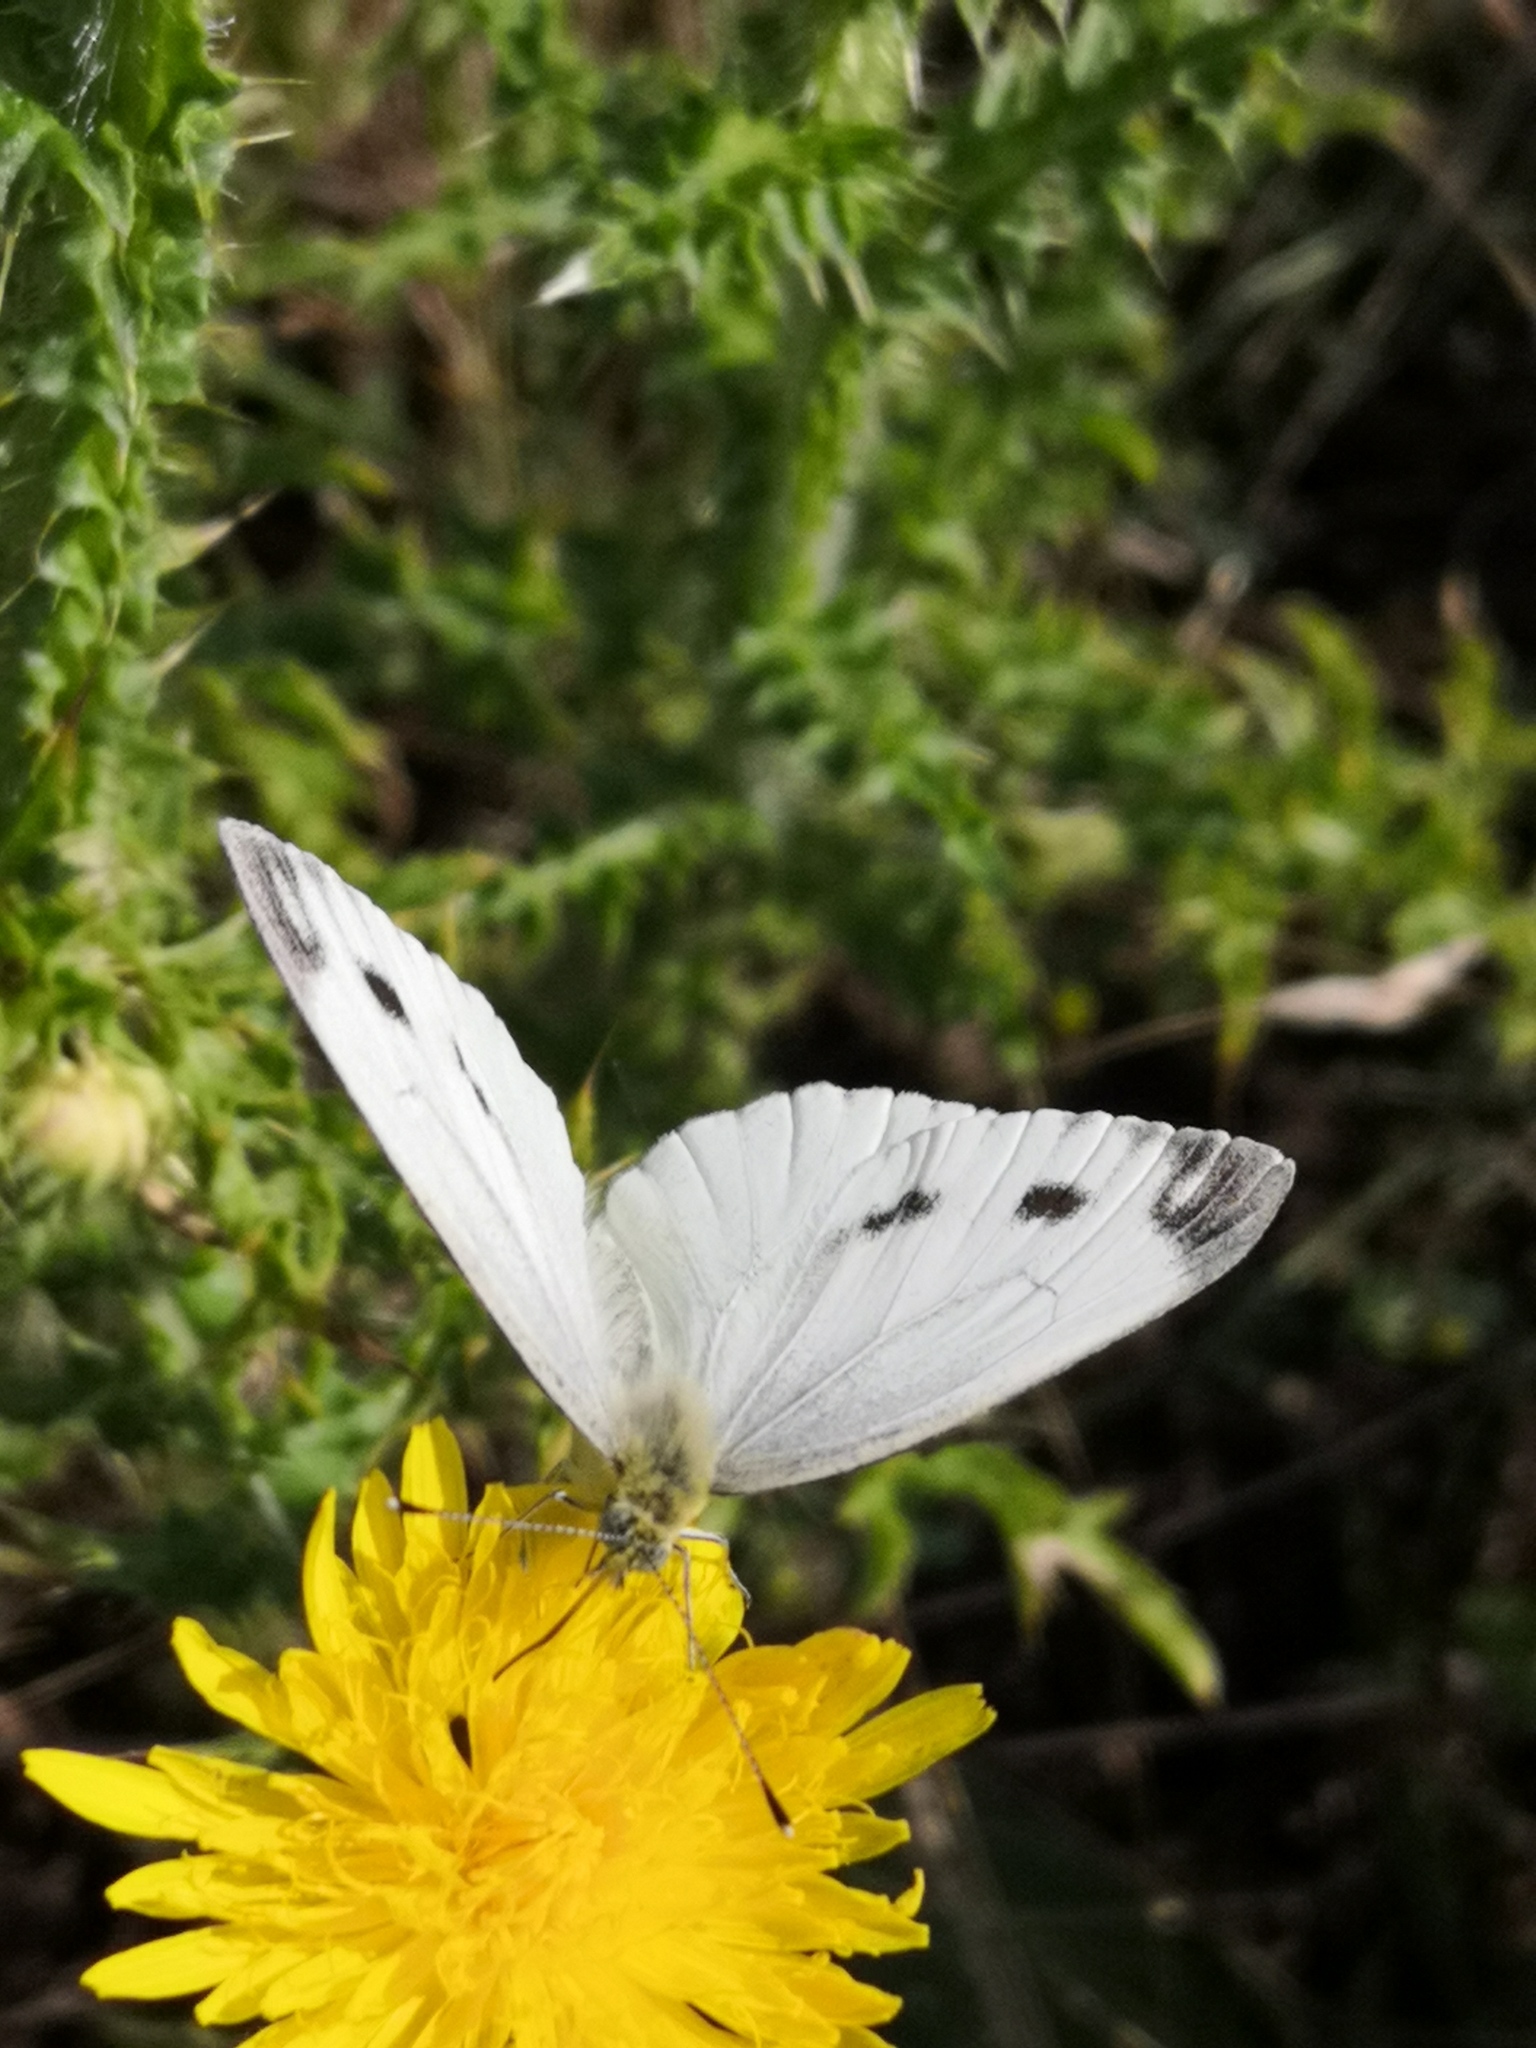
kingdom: Animalia
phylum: Arthropoda
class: Insecta
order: Lepidoptera
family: Pieridae
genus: Pieris
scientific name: Pieris napi
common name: Green-veined white
